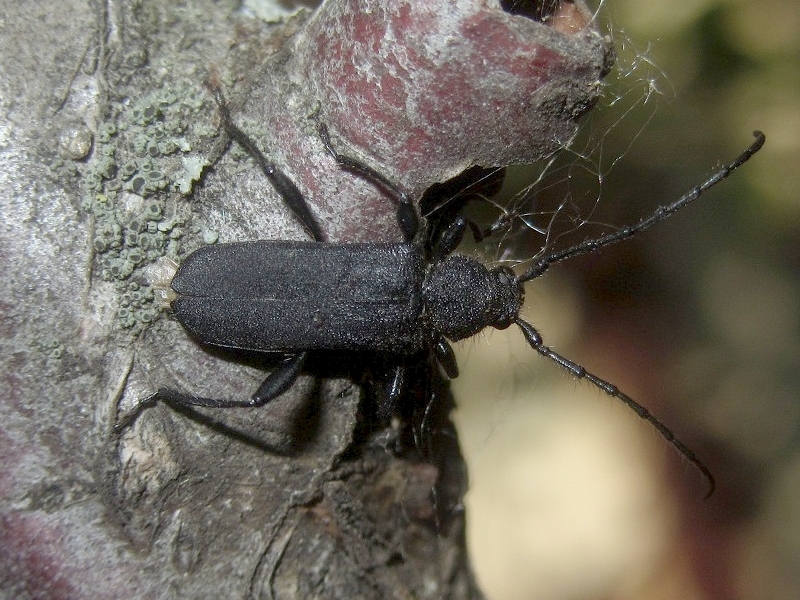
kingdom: Animalia
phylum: Arthropoda
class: Insecta
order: Coleoptera
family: Cerambycidae
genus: Ropalopus
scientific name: Ropalopus macropus
